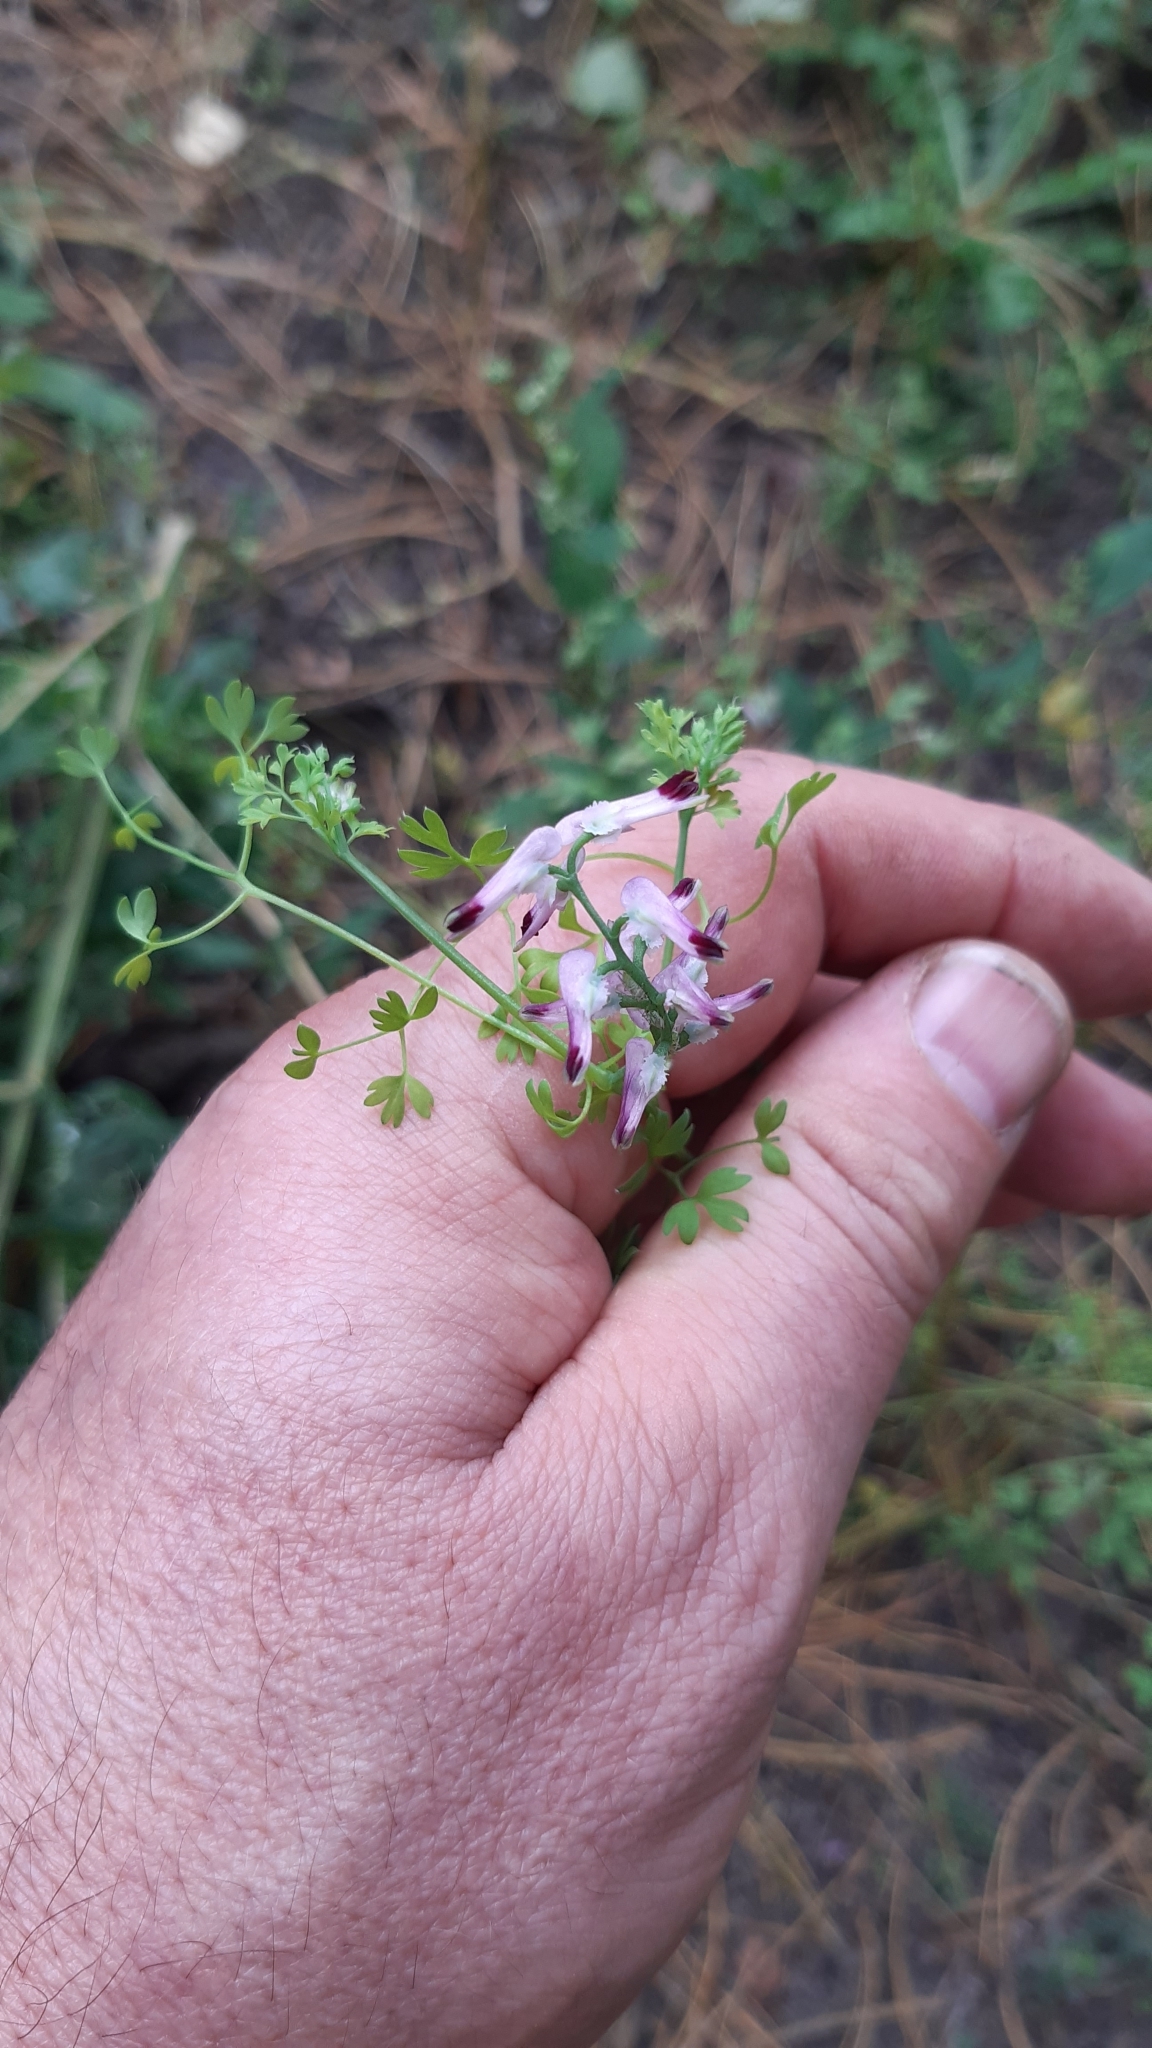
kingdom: Plantae
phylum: Tracheophyta
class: Magnoliopsida
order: Ranunculales
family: Papaveraceae
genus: Fumaria
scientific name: Fumaria muralis
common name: Common ramping-fumitory
